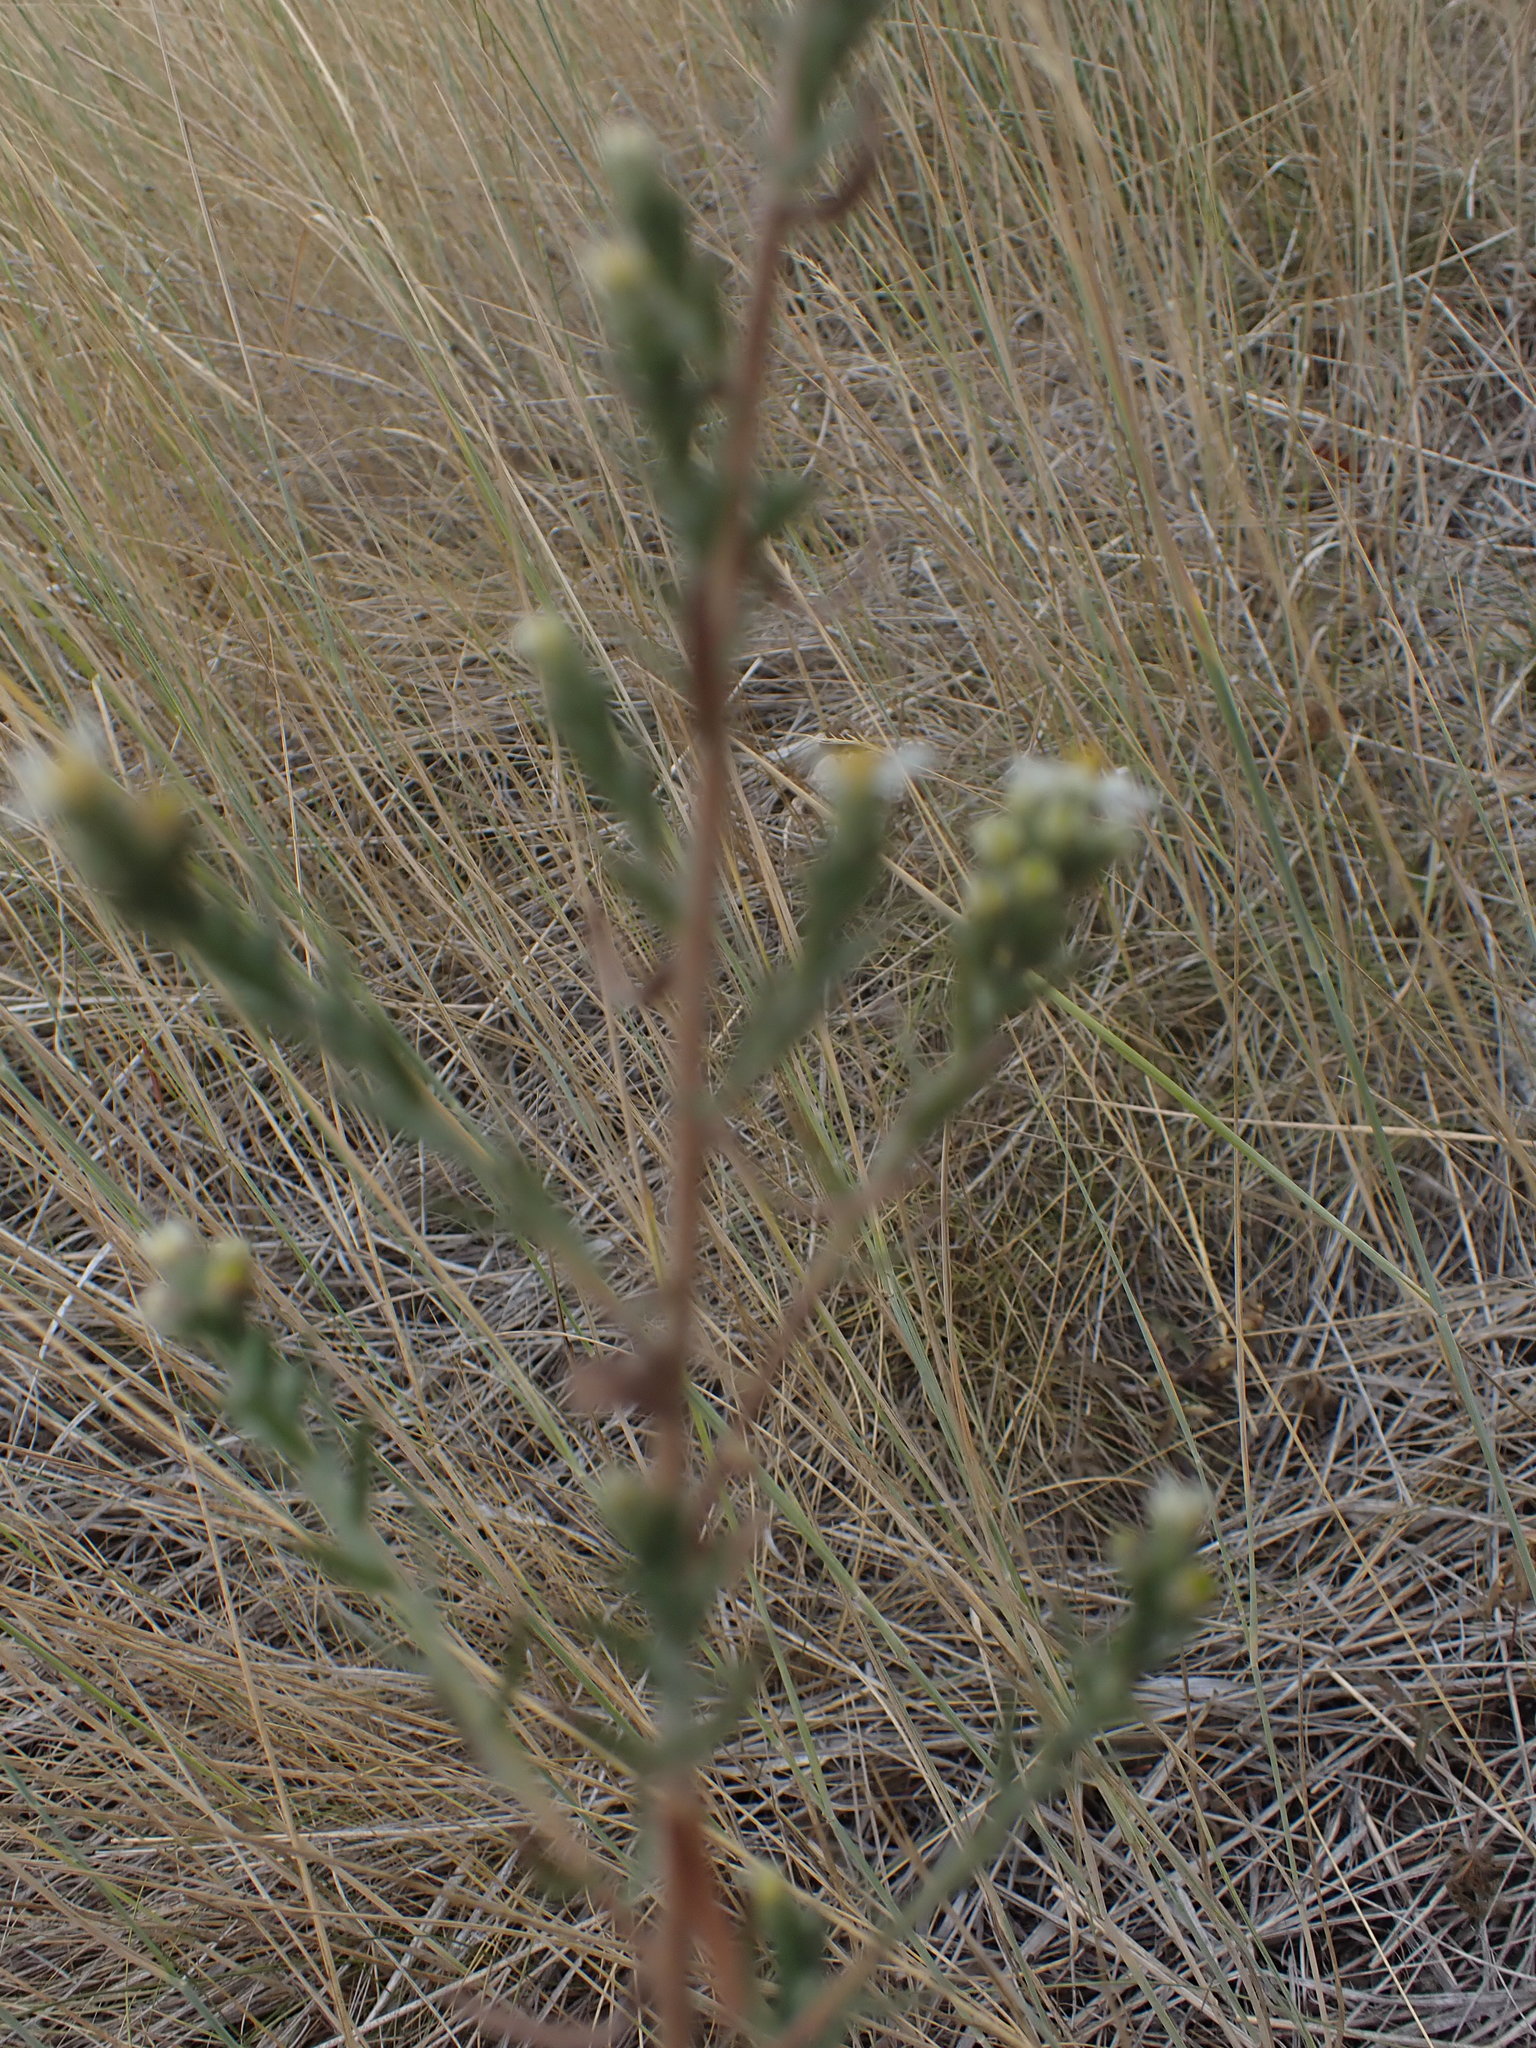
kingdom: Plantae
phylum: Tracheophyta
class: Magnoliopsida
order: Asterales
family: Asteraceae
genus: Symphyotrichum
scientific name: Symphyotrichum ericoides
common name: Heath aster
